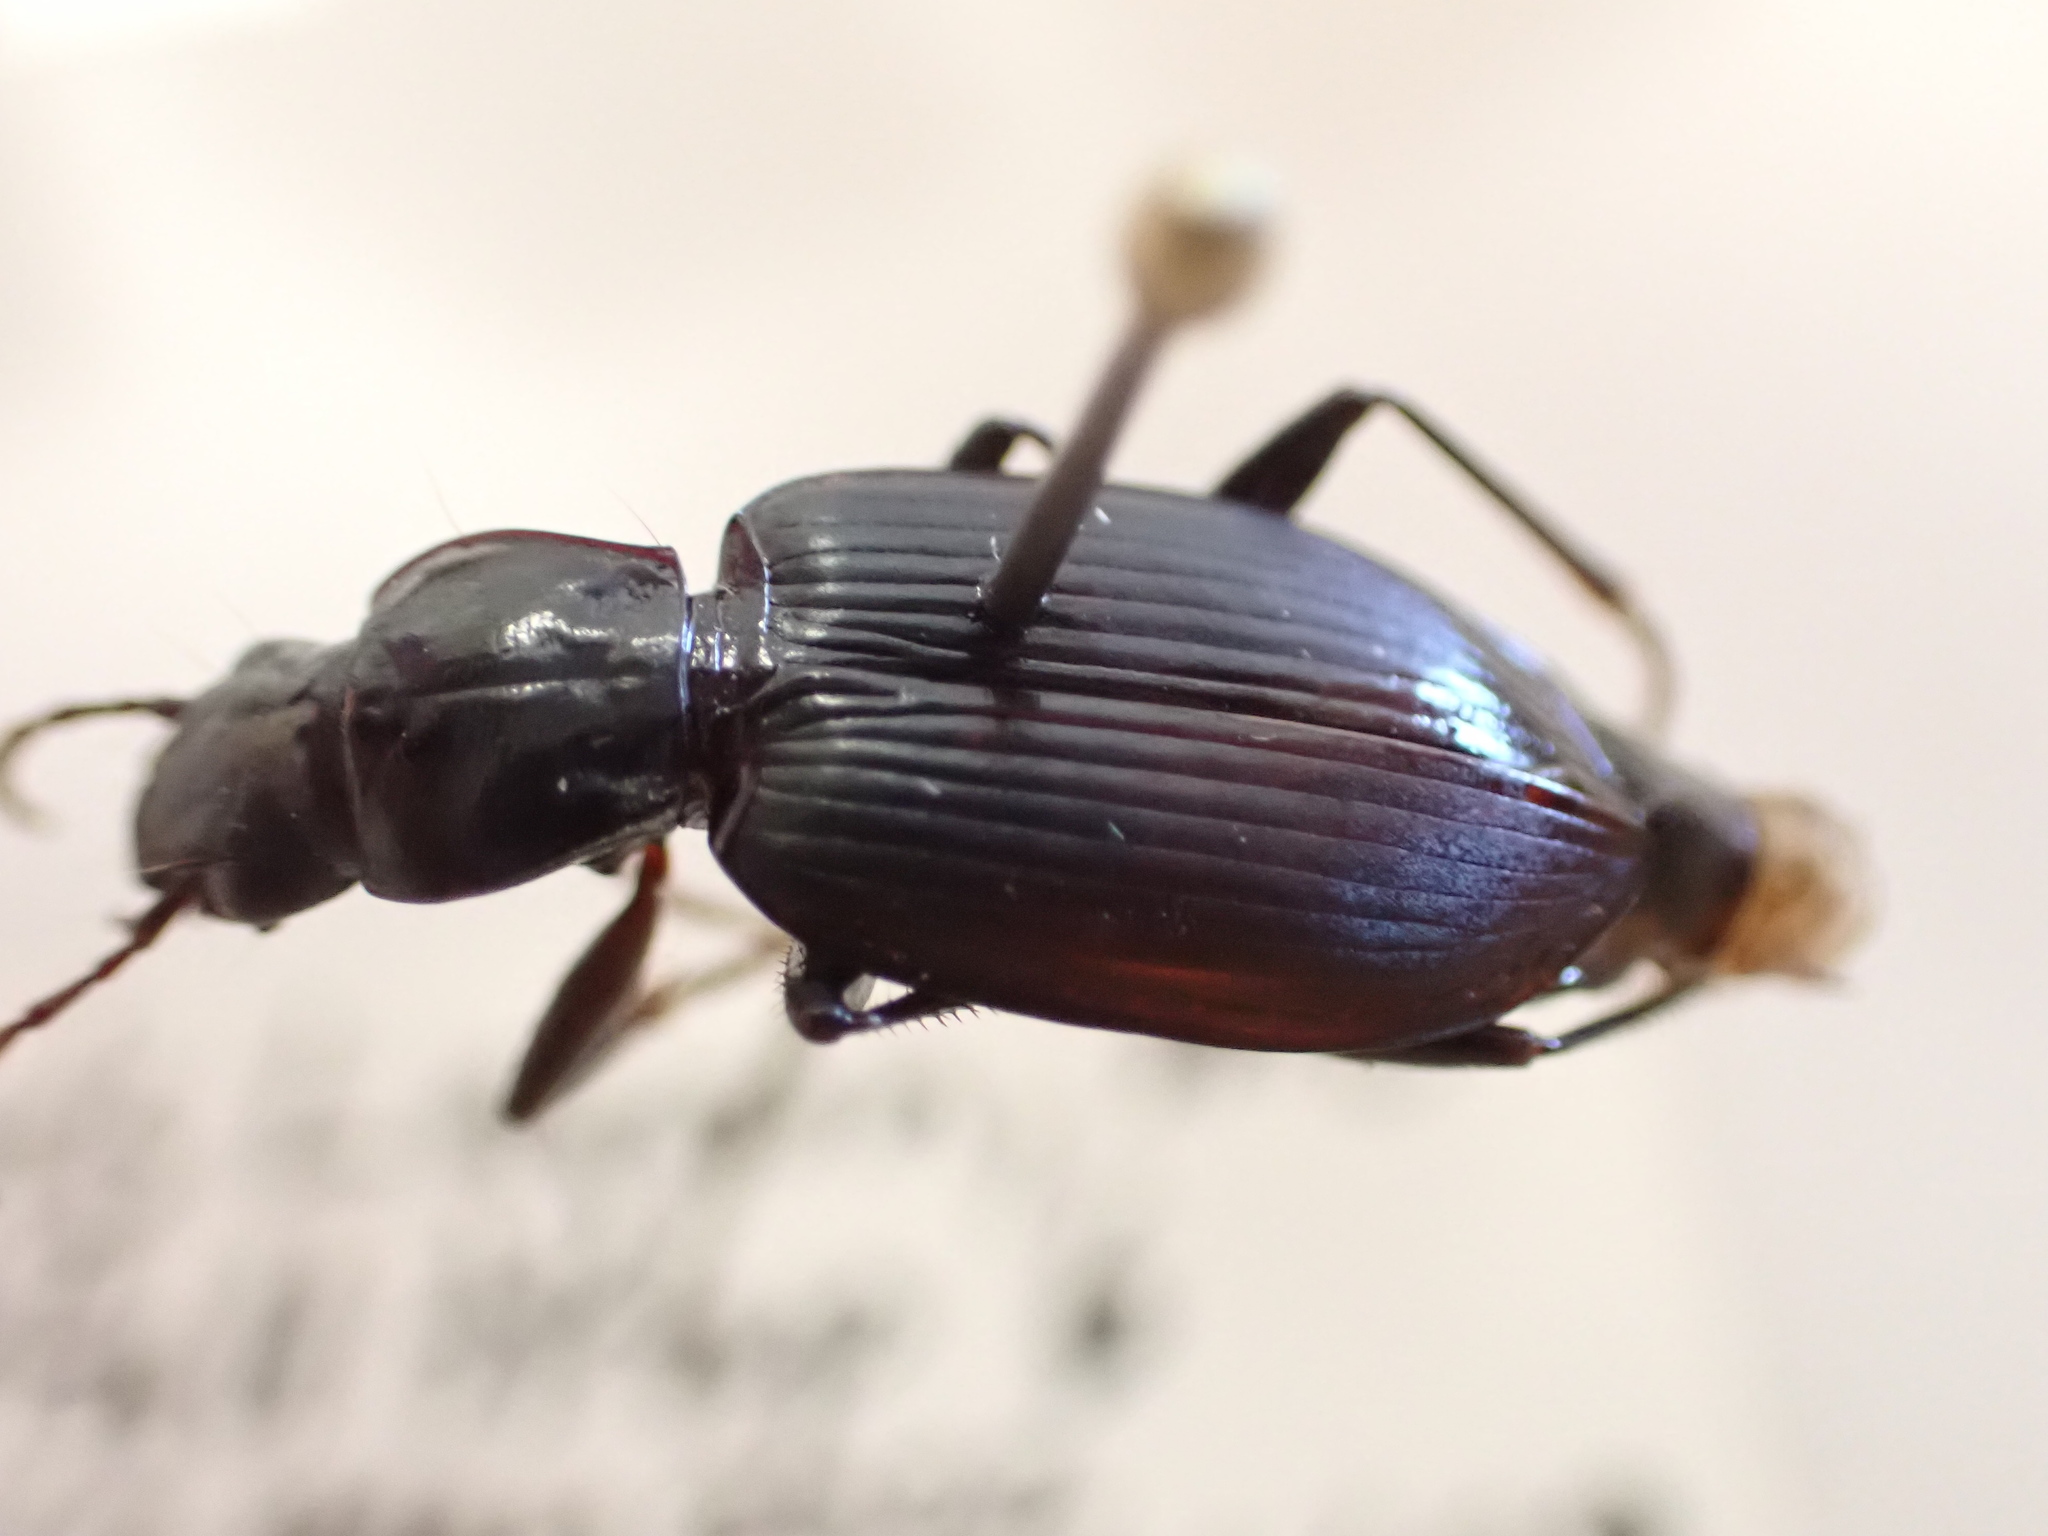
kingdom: Animalia
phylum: Arthropoda
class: Insecta
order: Coleoptera
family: Carabidae
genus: Laemostenus
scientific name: Laemostenus complanatus
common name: Cosmopolitan ground beetle
